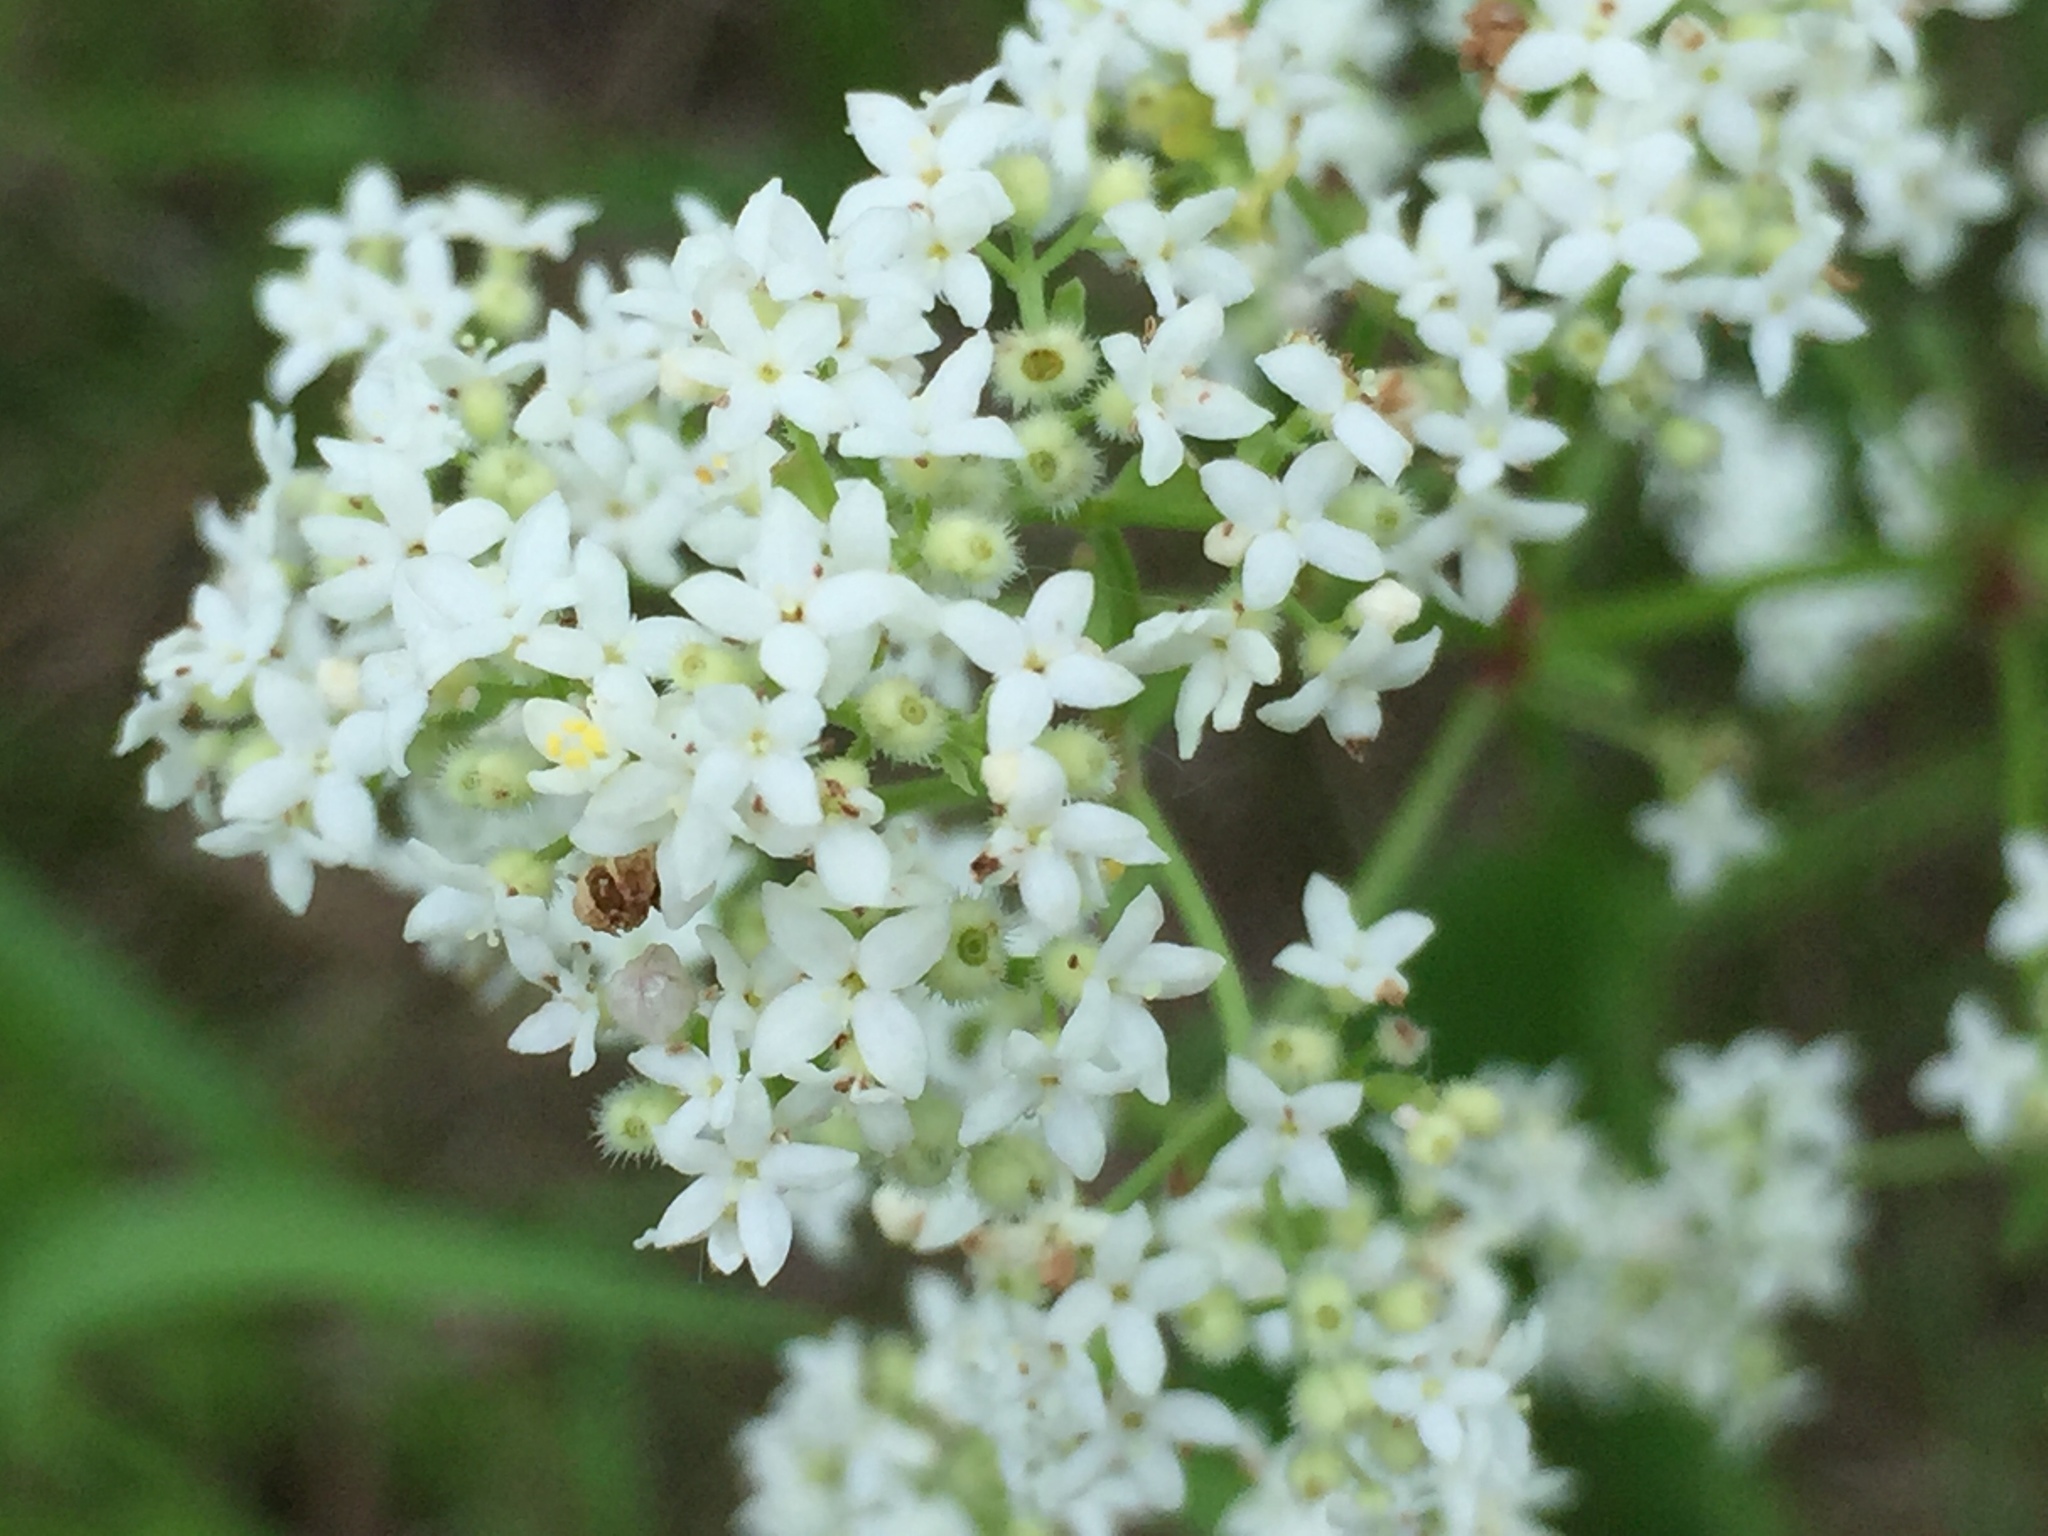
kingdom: Plantae
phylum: Tracheophyta
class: Magnoliopsida
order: Gentianales
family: Rubiaceae
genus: Galium
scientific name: Galium boreale
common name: Northern bedstraw
